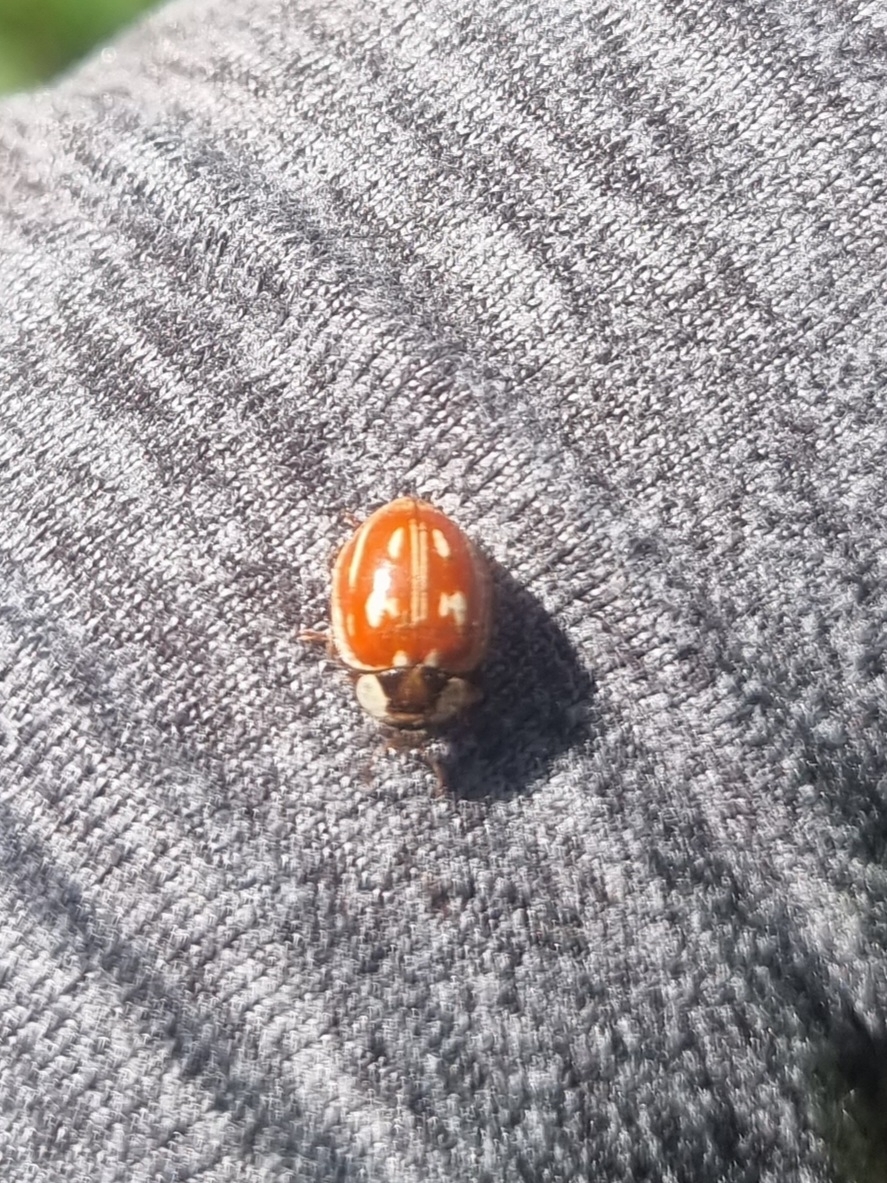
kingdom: Animalia
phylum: Arthropoda
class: Insecta
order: Coleoptera
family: Coccinellidae
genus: Myzia
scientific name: Myzia oblongoguttata
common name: Striped ladybird
